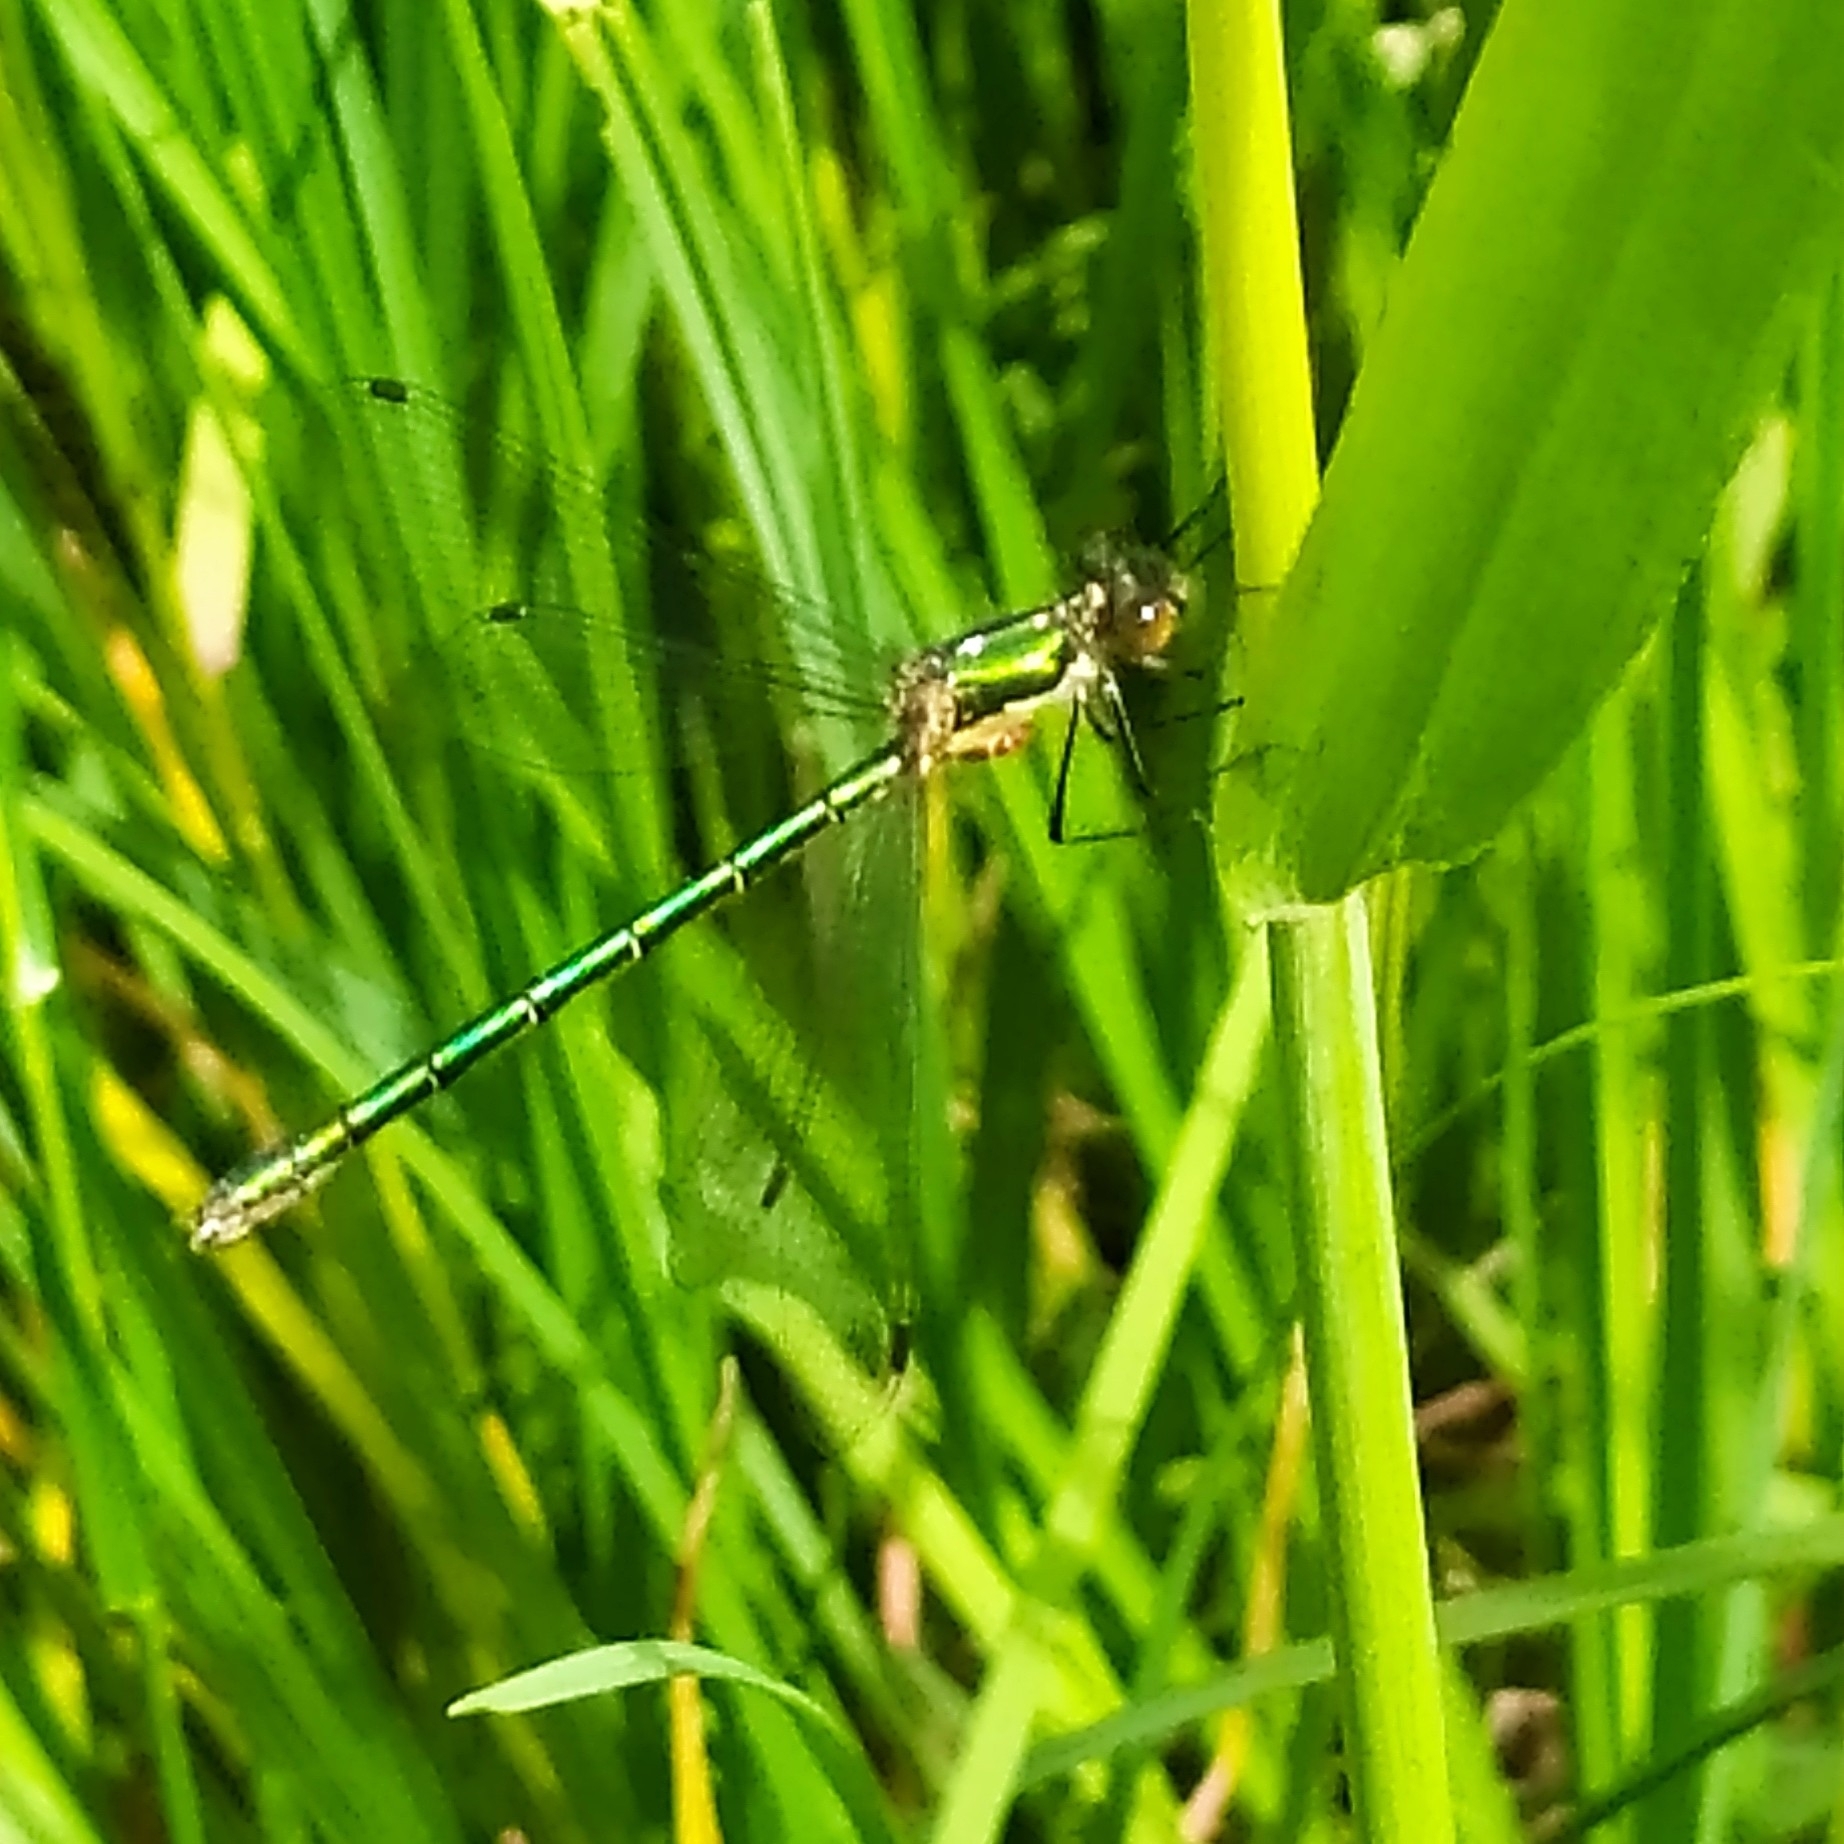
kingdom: Animalia
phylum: Arthropoda
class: Insecta
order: Odonata
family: Lestidae
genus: Lestes
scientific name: Lestes dryas
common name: Scarce emerald damselfly
